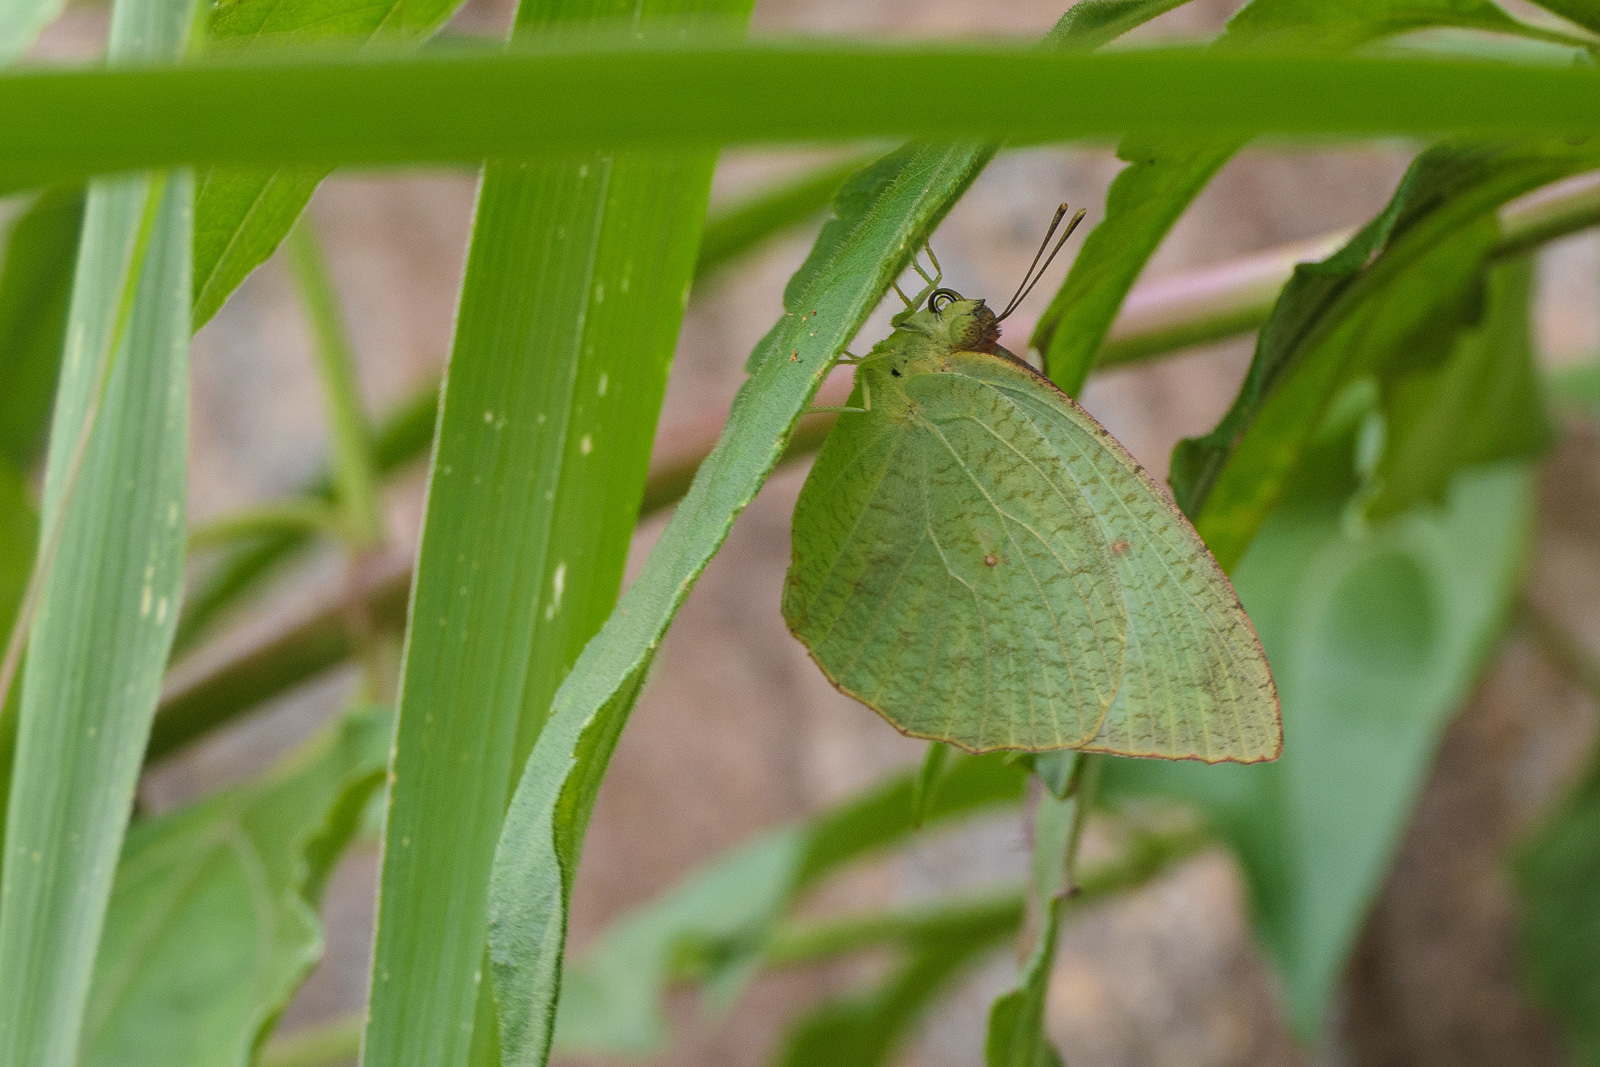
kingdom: Animalia
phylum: Arthropoda
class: Insecta
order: Lepidoptera
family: Pieridae
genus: Catopsilia
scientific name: Catopsilia pyranthe
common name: Mottled emigrant
